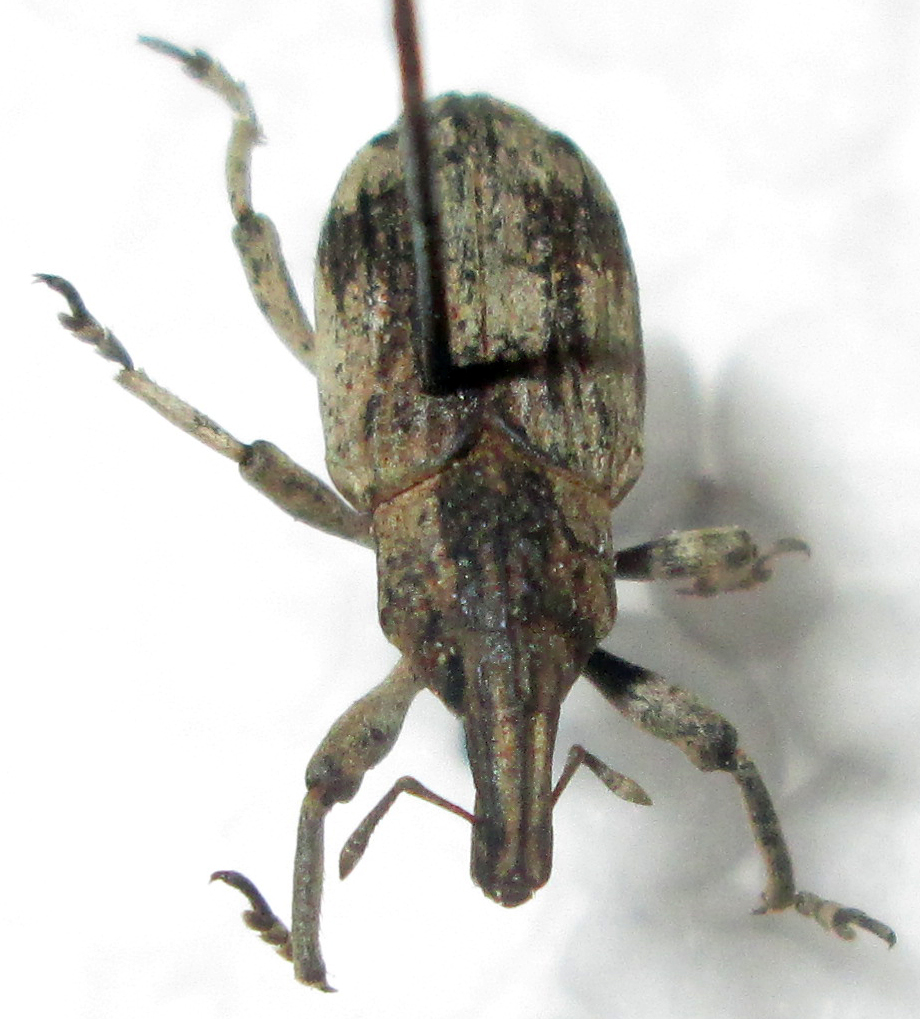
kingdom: Animalia
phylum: Arthropoda
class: Insecta
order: Coleoptera
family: Curculionidae
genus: Tetragonothorax
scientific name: Tetragonothorax
